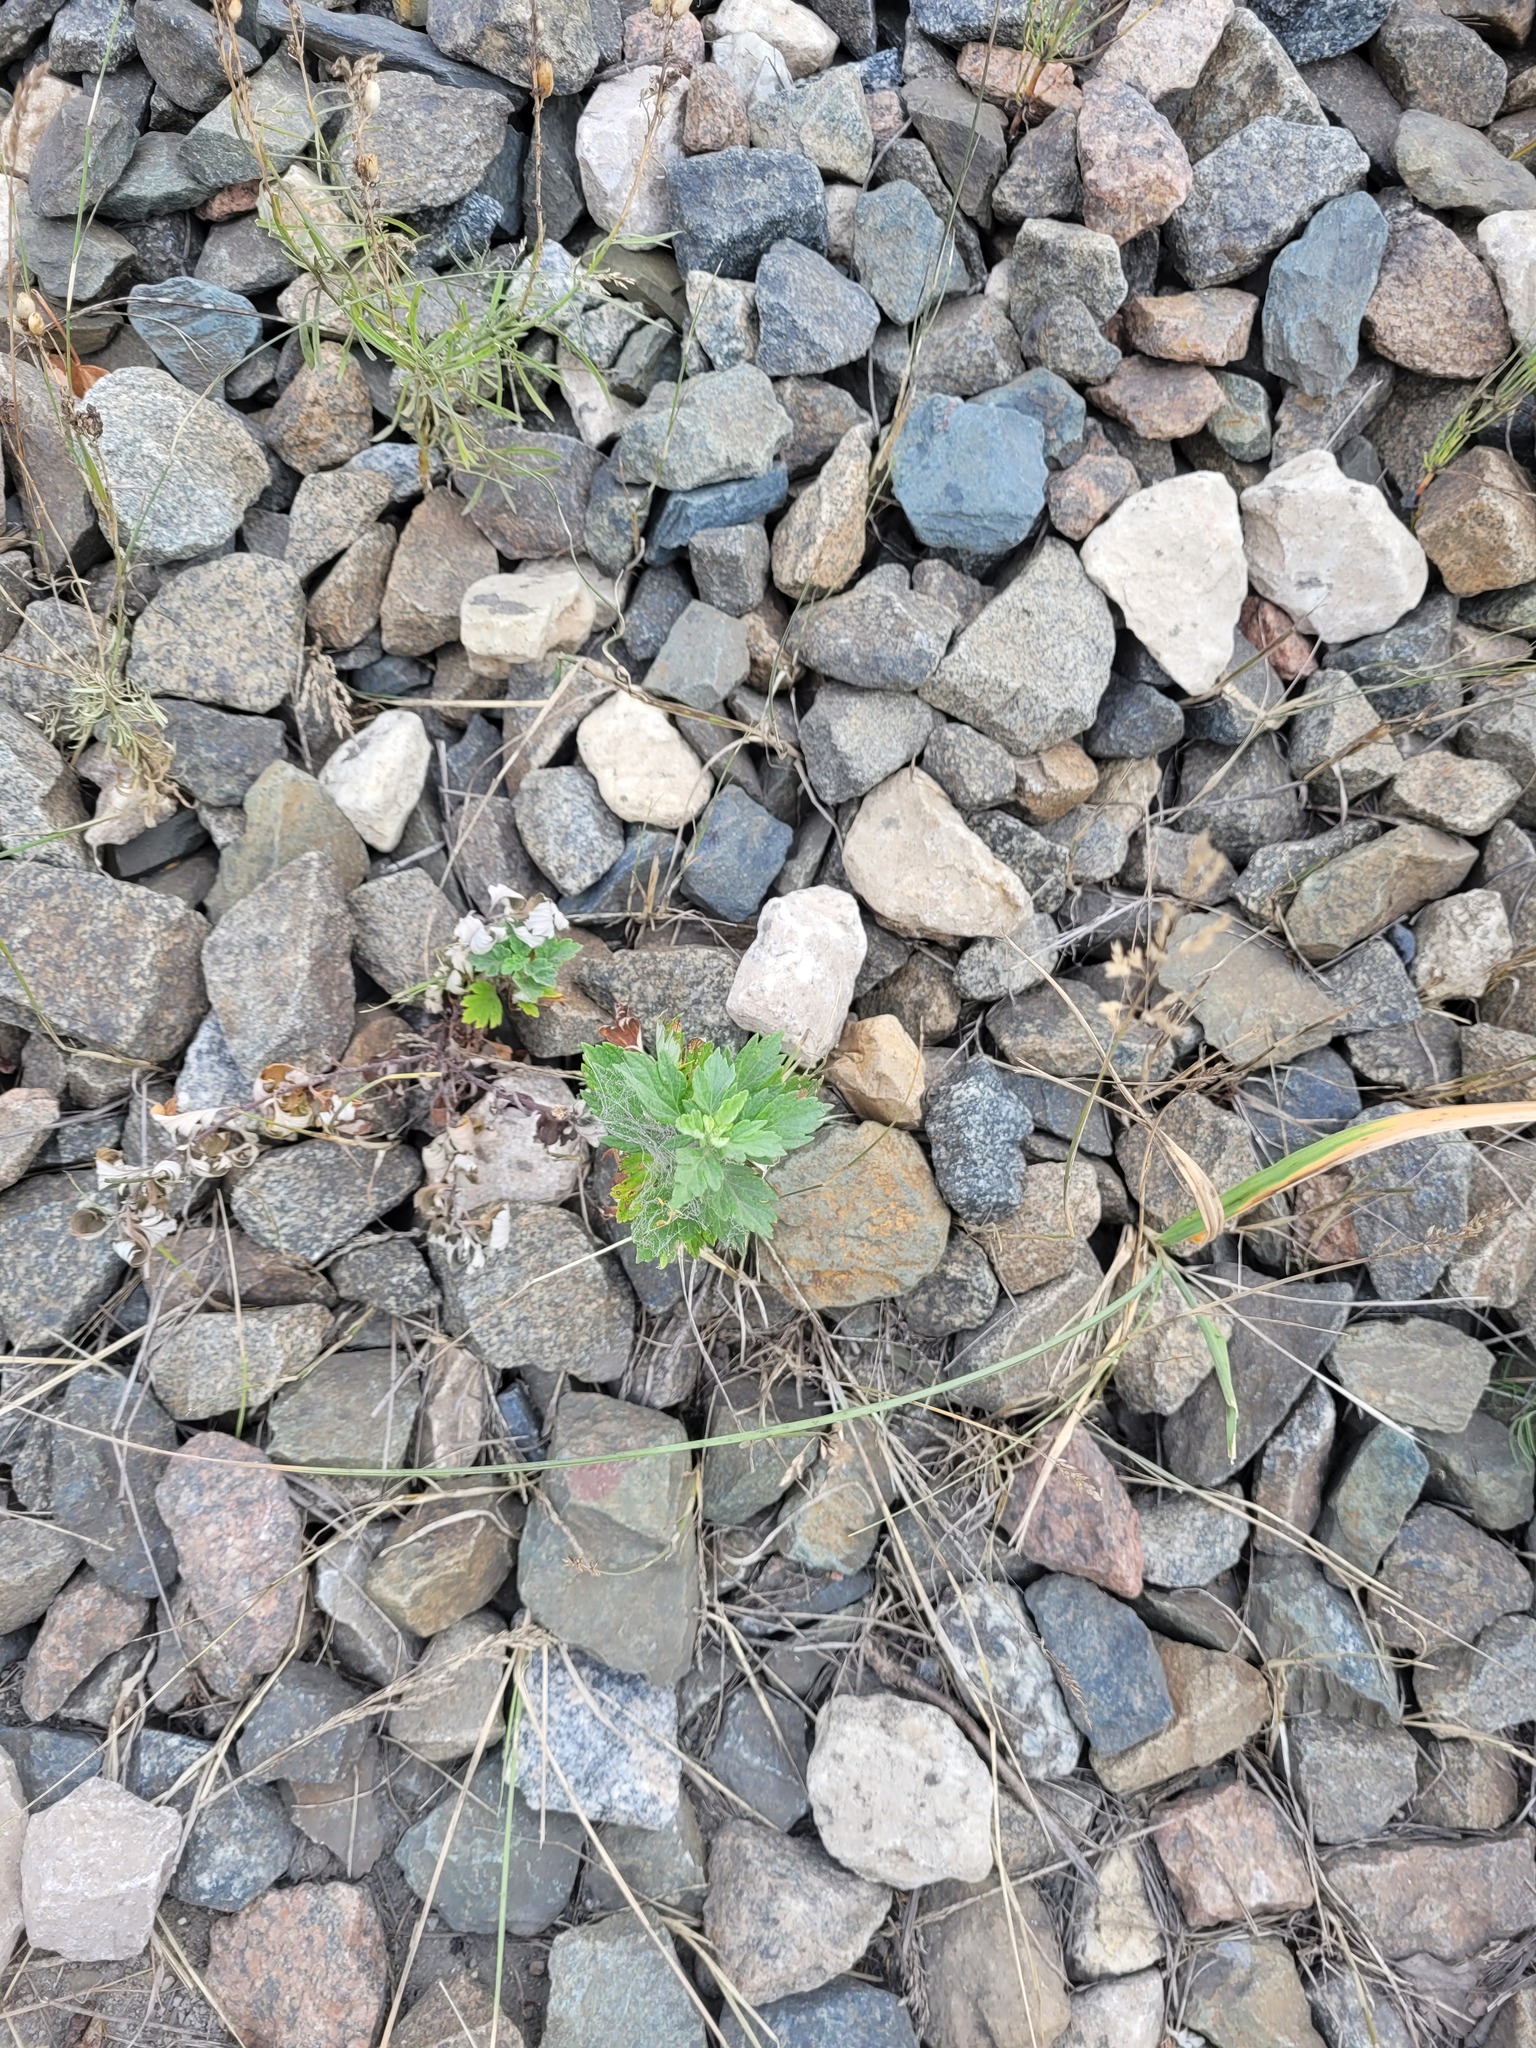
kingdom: Plantae
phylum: Tracheophyta
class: Magnoliopsida
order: Asterales
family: Asteraceae
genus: Artemisia
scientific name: Artemisia vulgaris
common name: Mugwort
